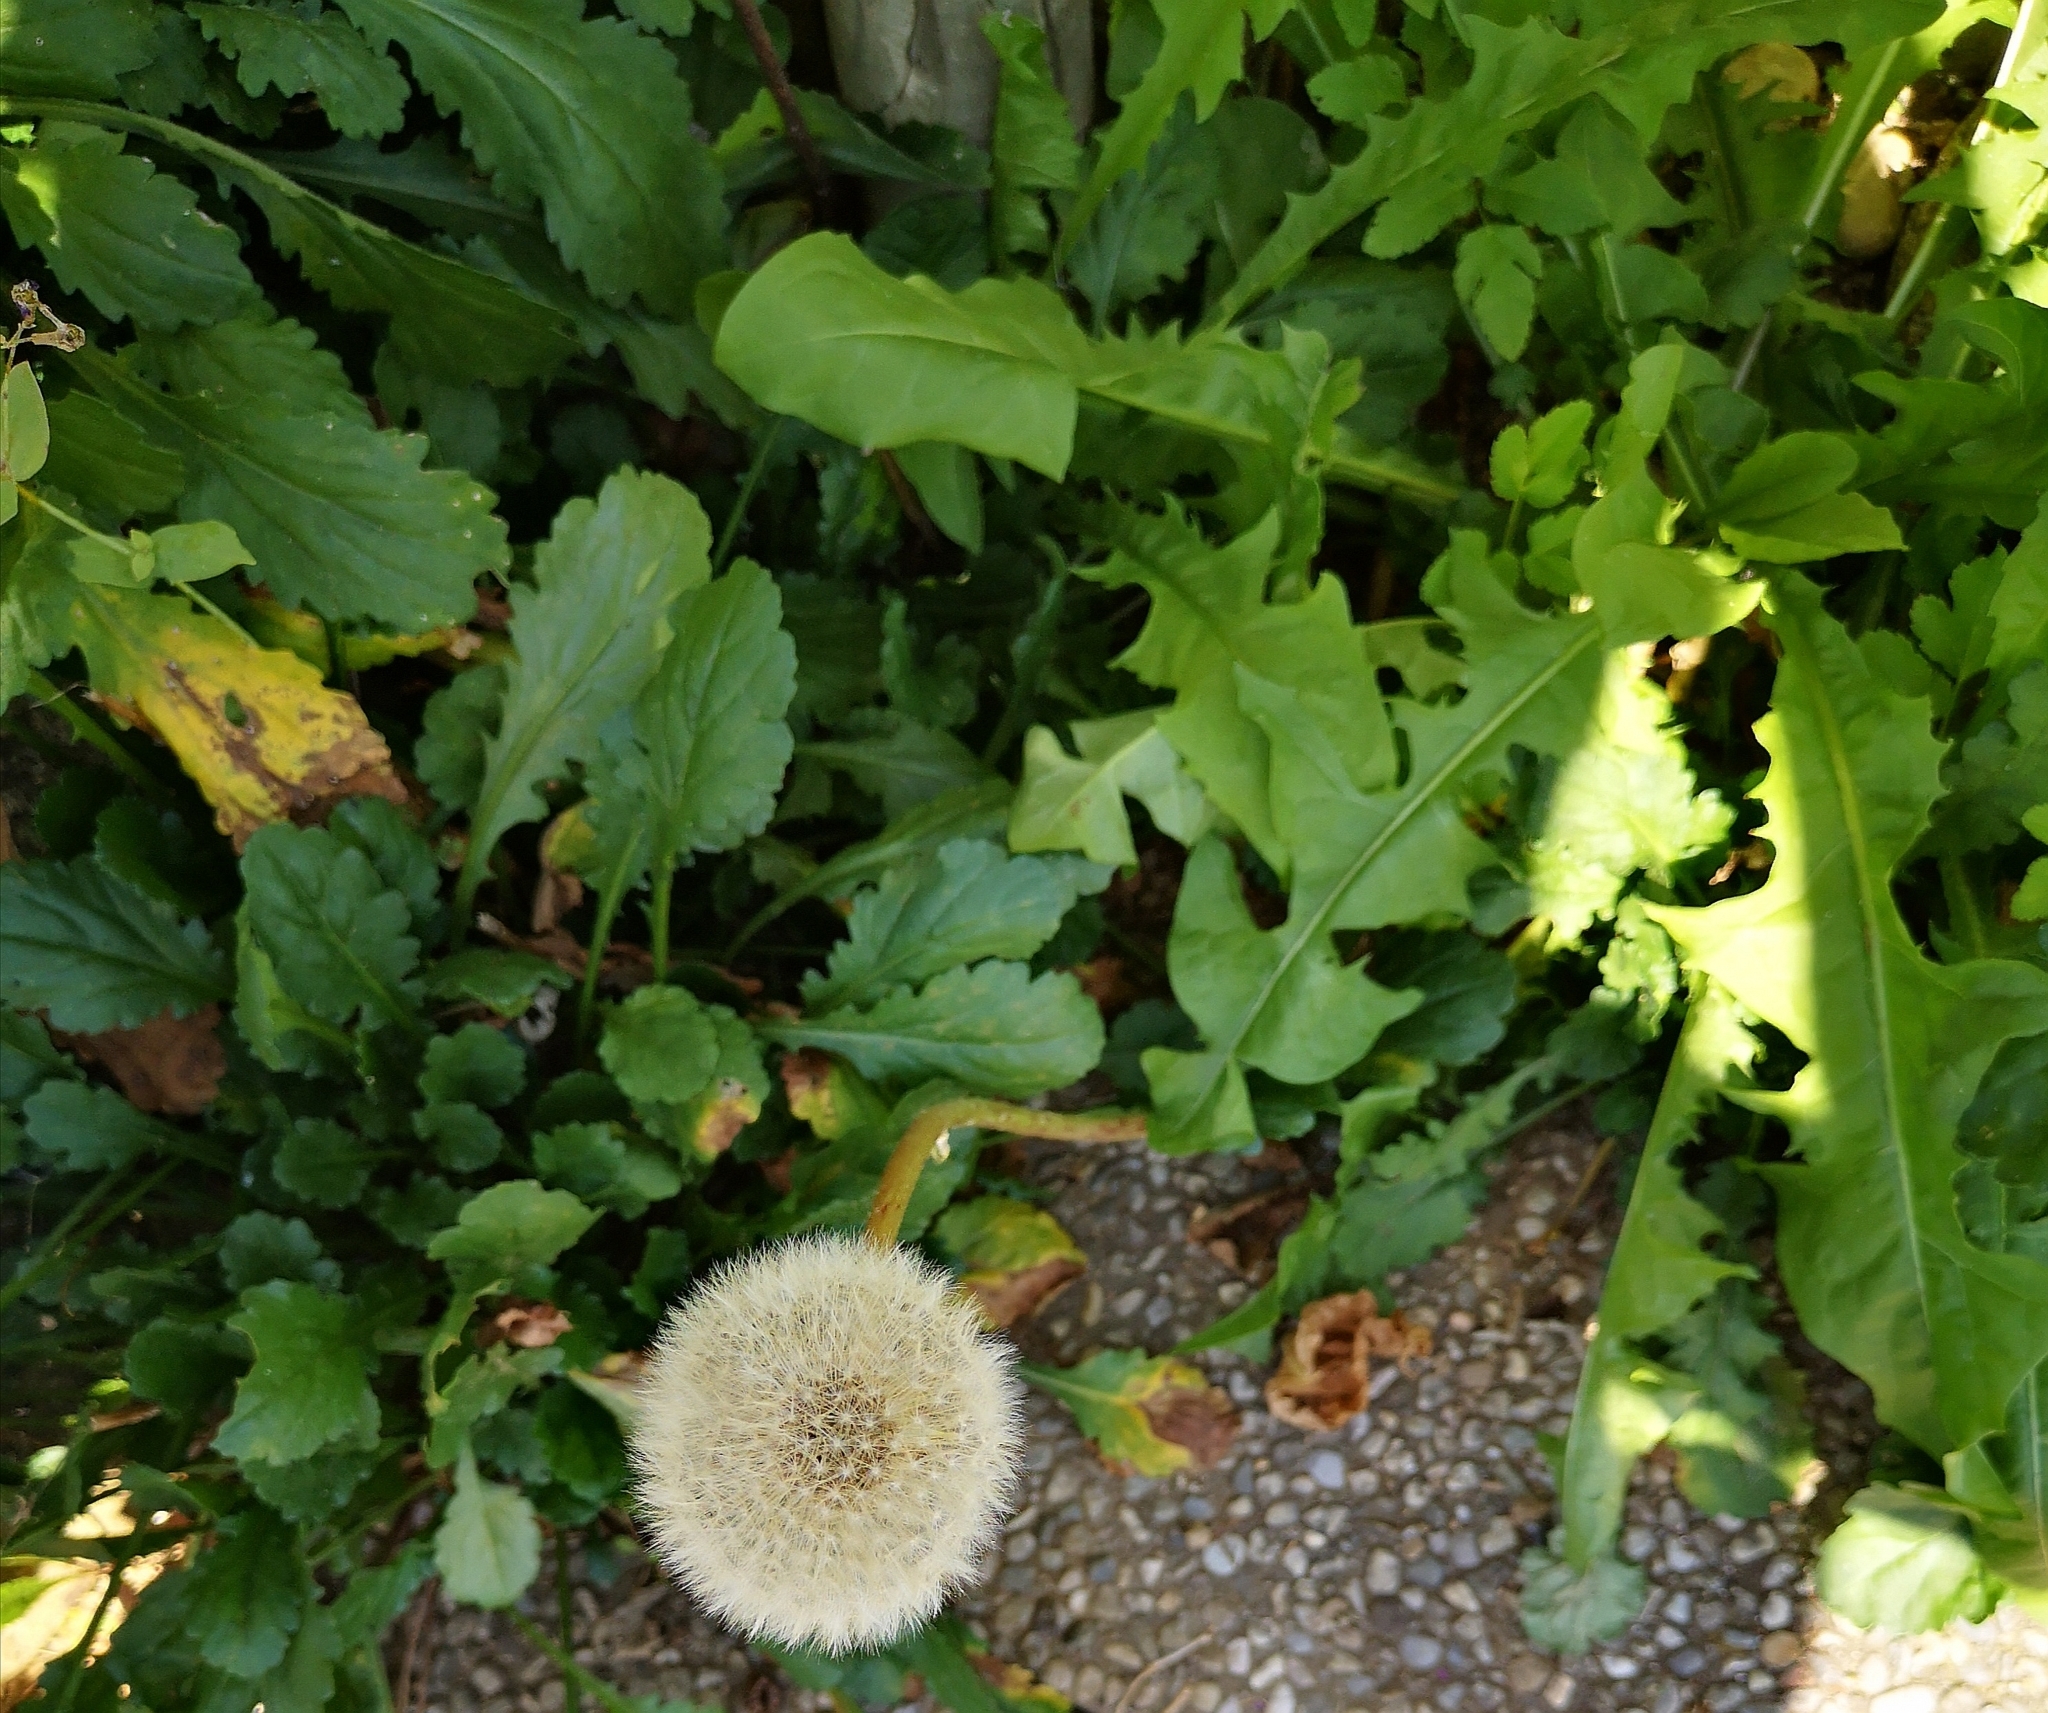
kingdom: Plantae
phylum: Tracheophyta
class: Magnoliopsida
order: Asterales
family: Asteraceae
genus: Taraxacum
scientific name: Taraxacum officinale
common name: Common dandelion
